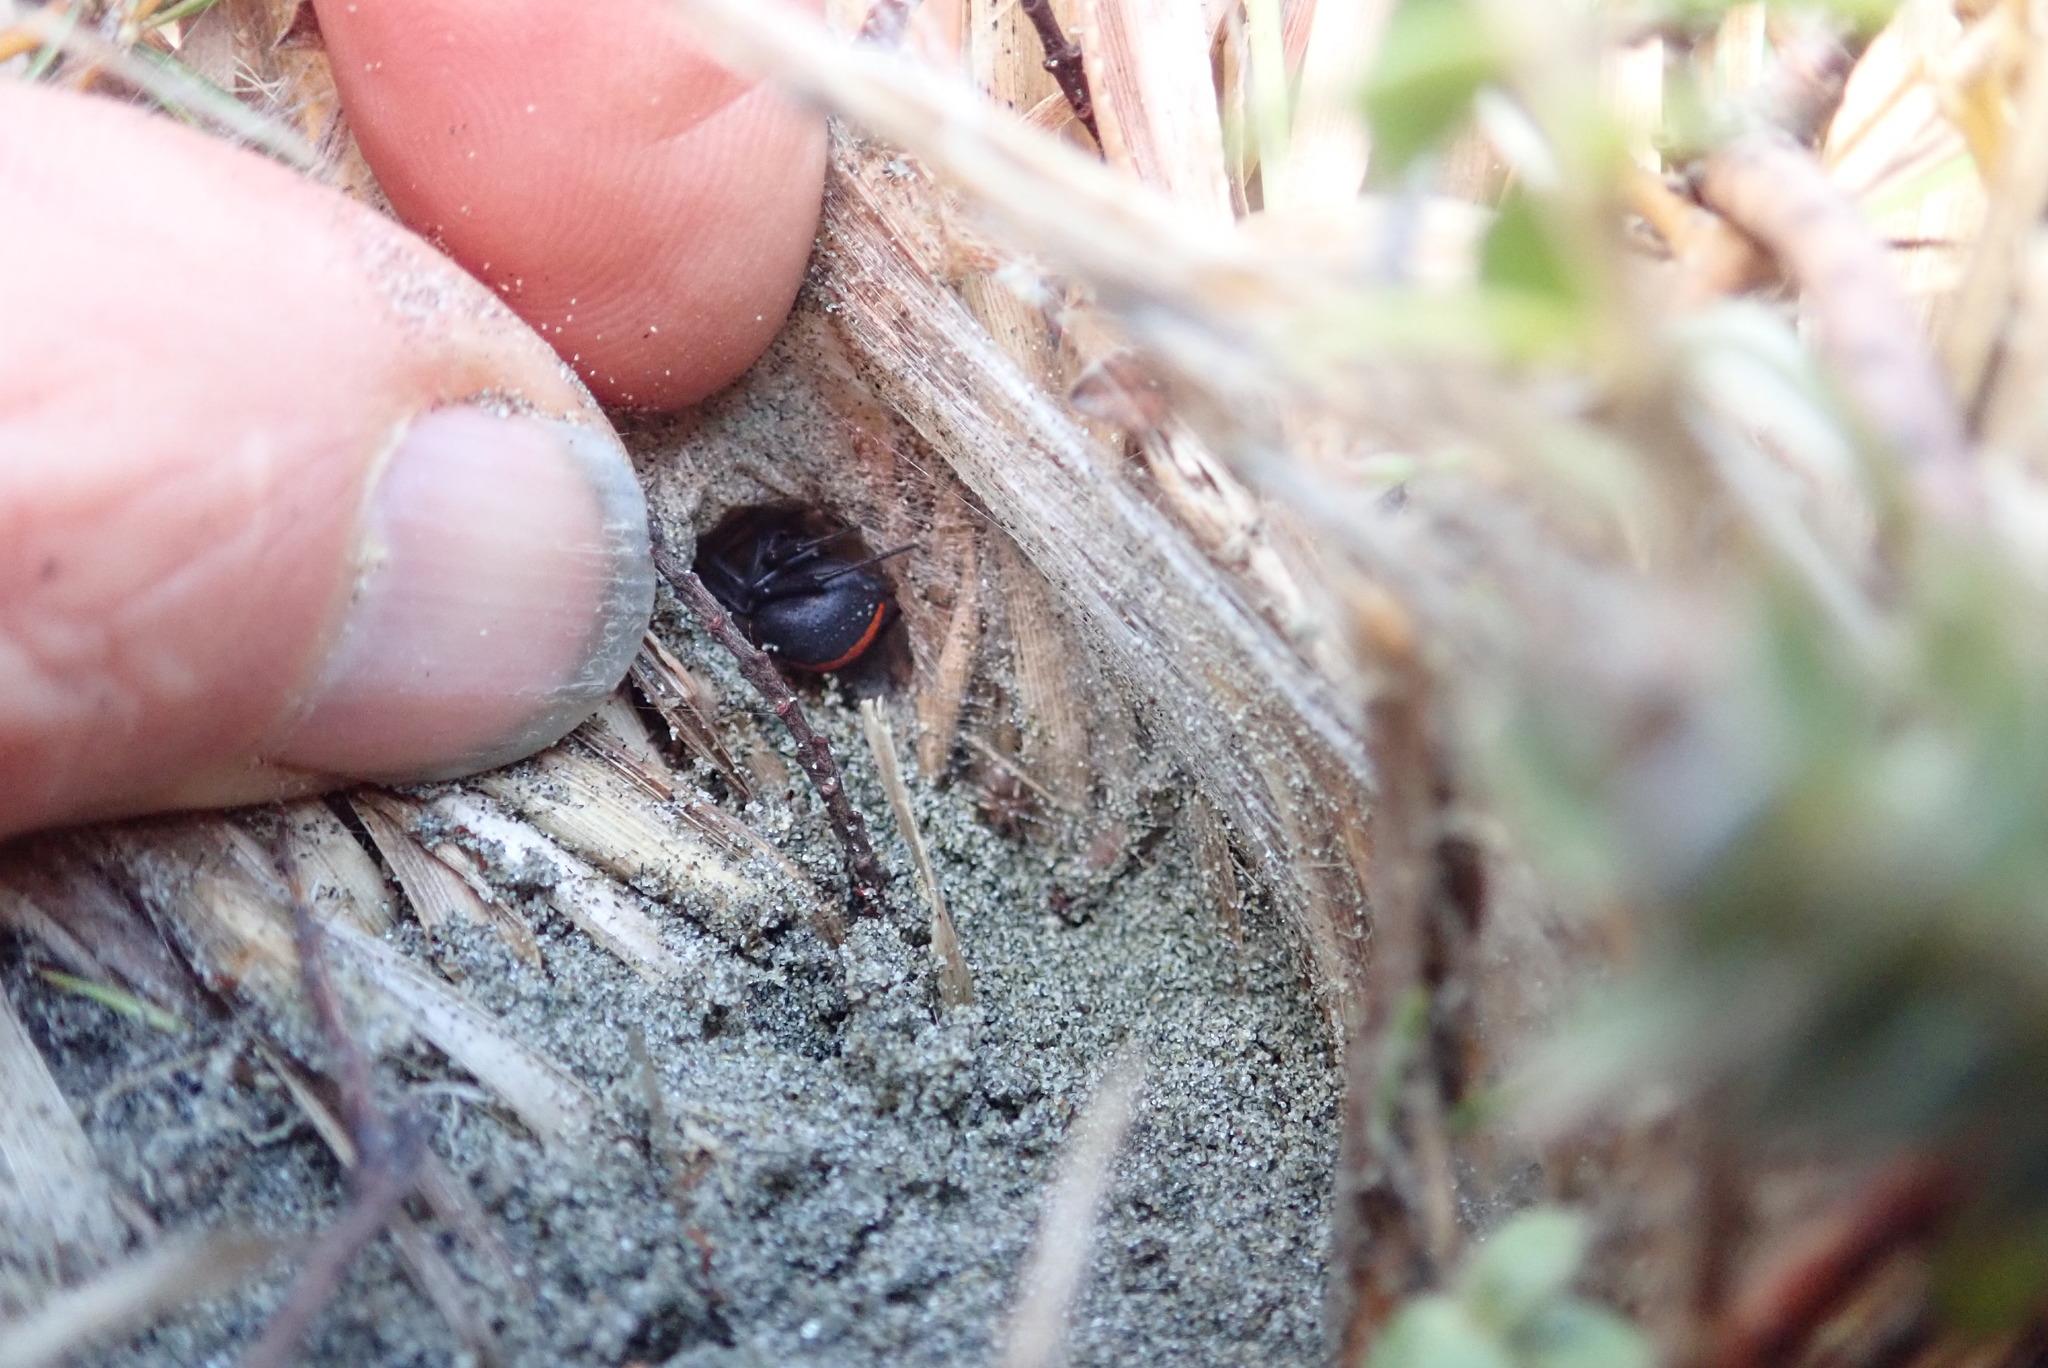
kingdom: Animalia
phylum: Arthropoda
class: Arachnida
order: Araneae
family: Theridiidae
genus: Latrodectus
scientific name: Latrodectus katipo
